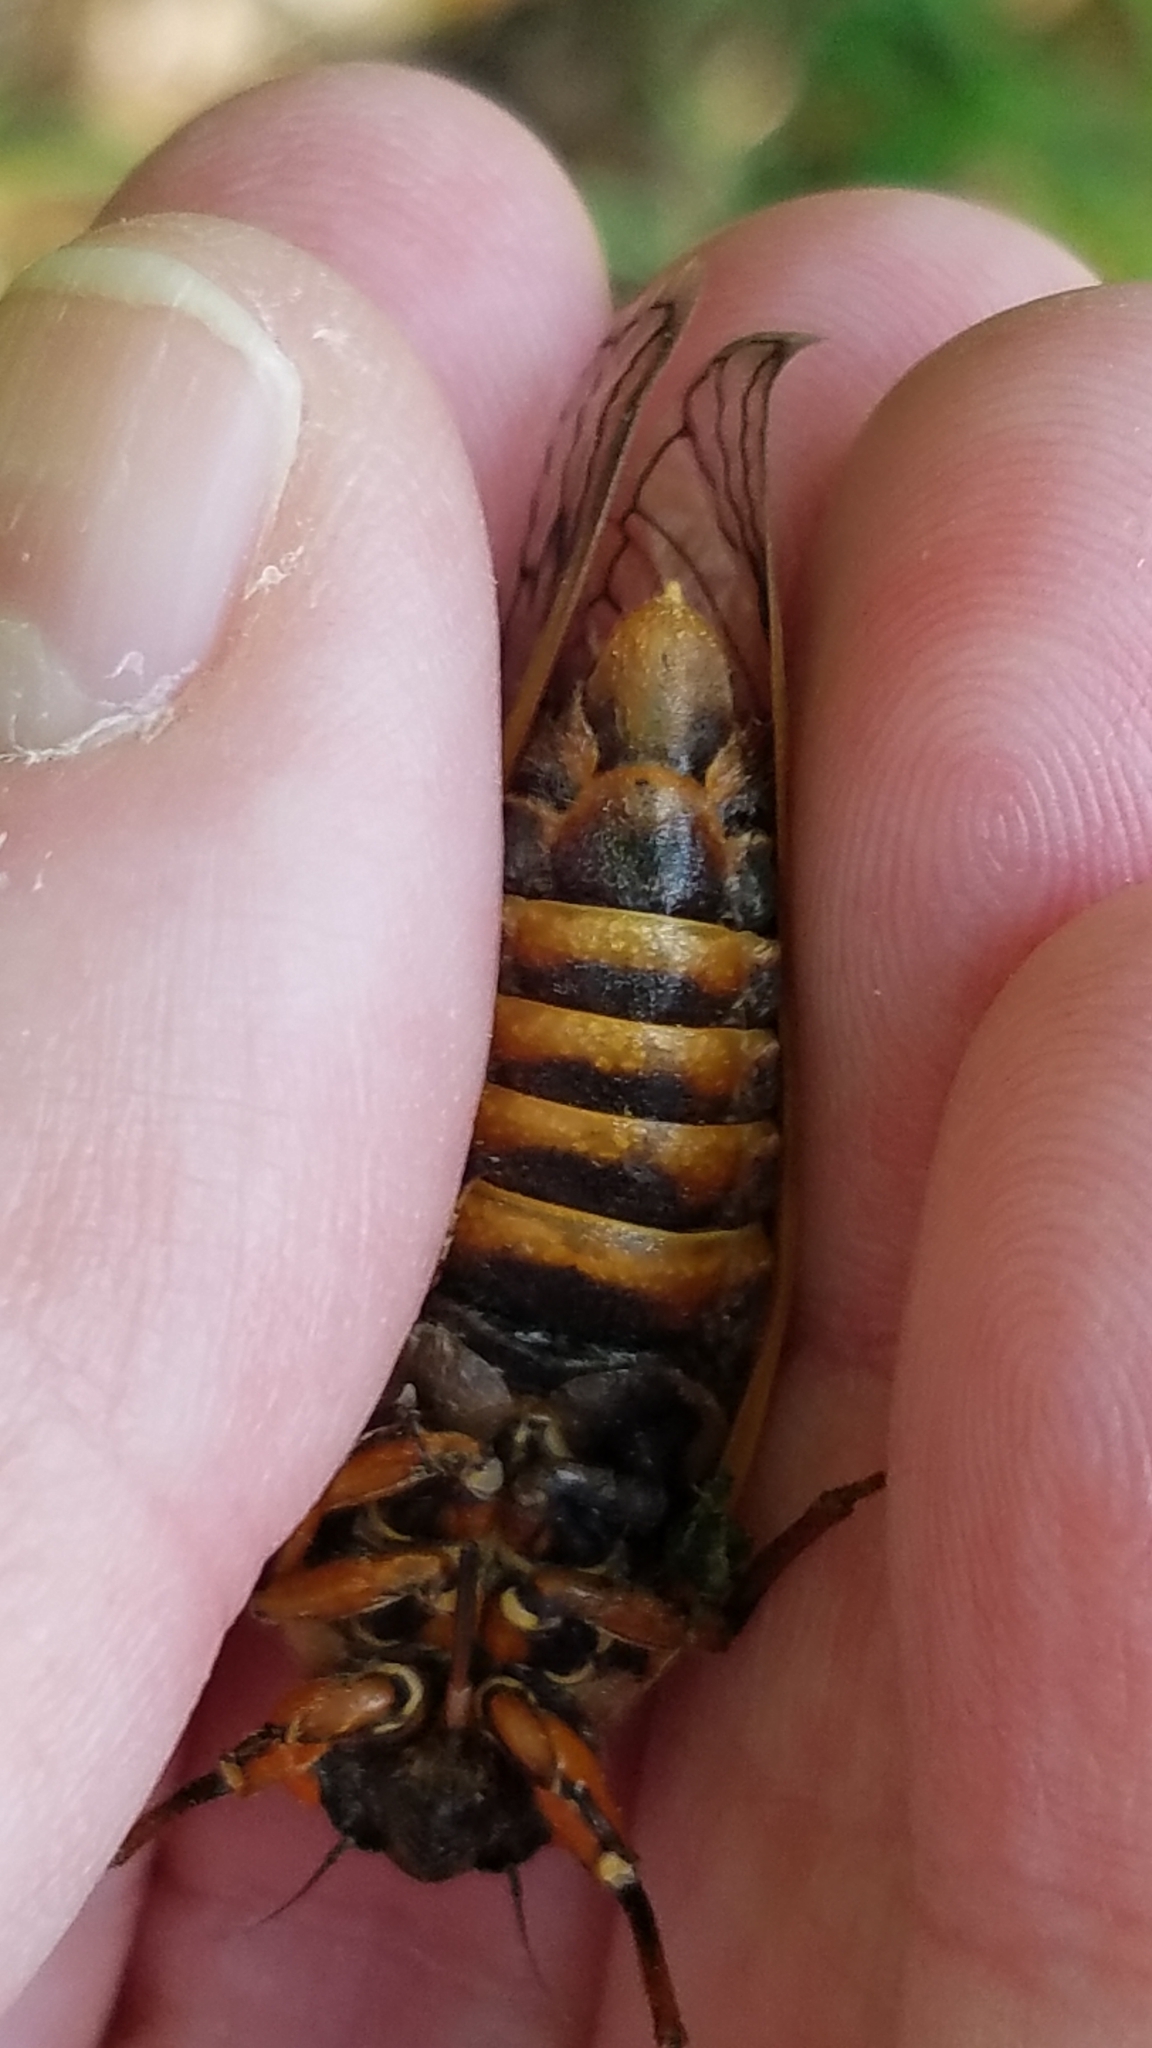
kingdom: Animalia
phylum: Arthropoda
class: Insecta
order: Hemiptera
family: Cicadidae
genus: Magicicada
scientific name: Magicicada septendecim
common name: Periodical cicada
